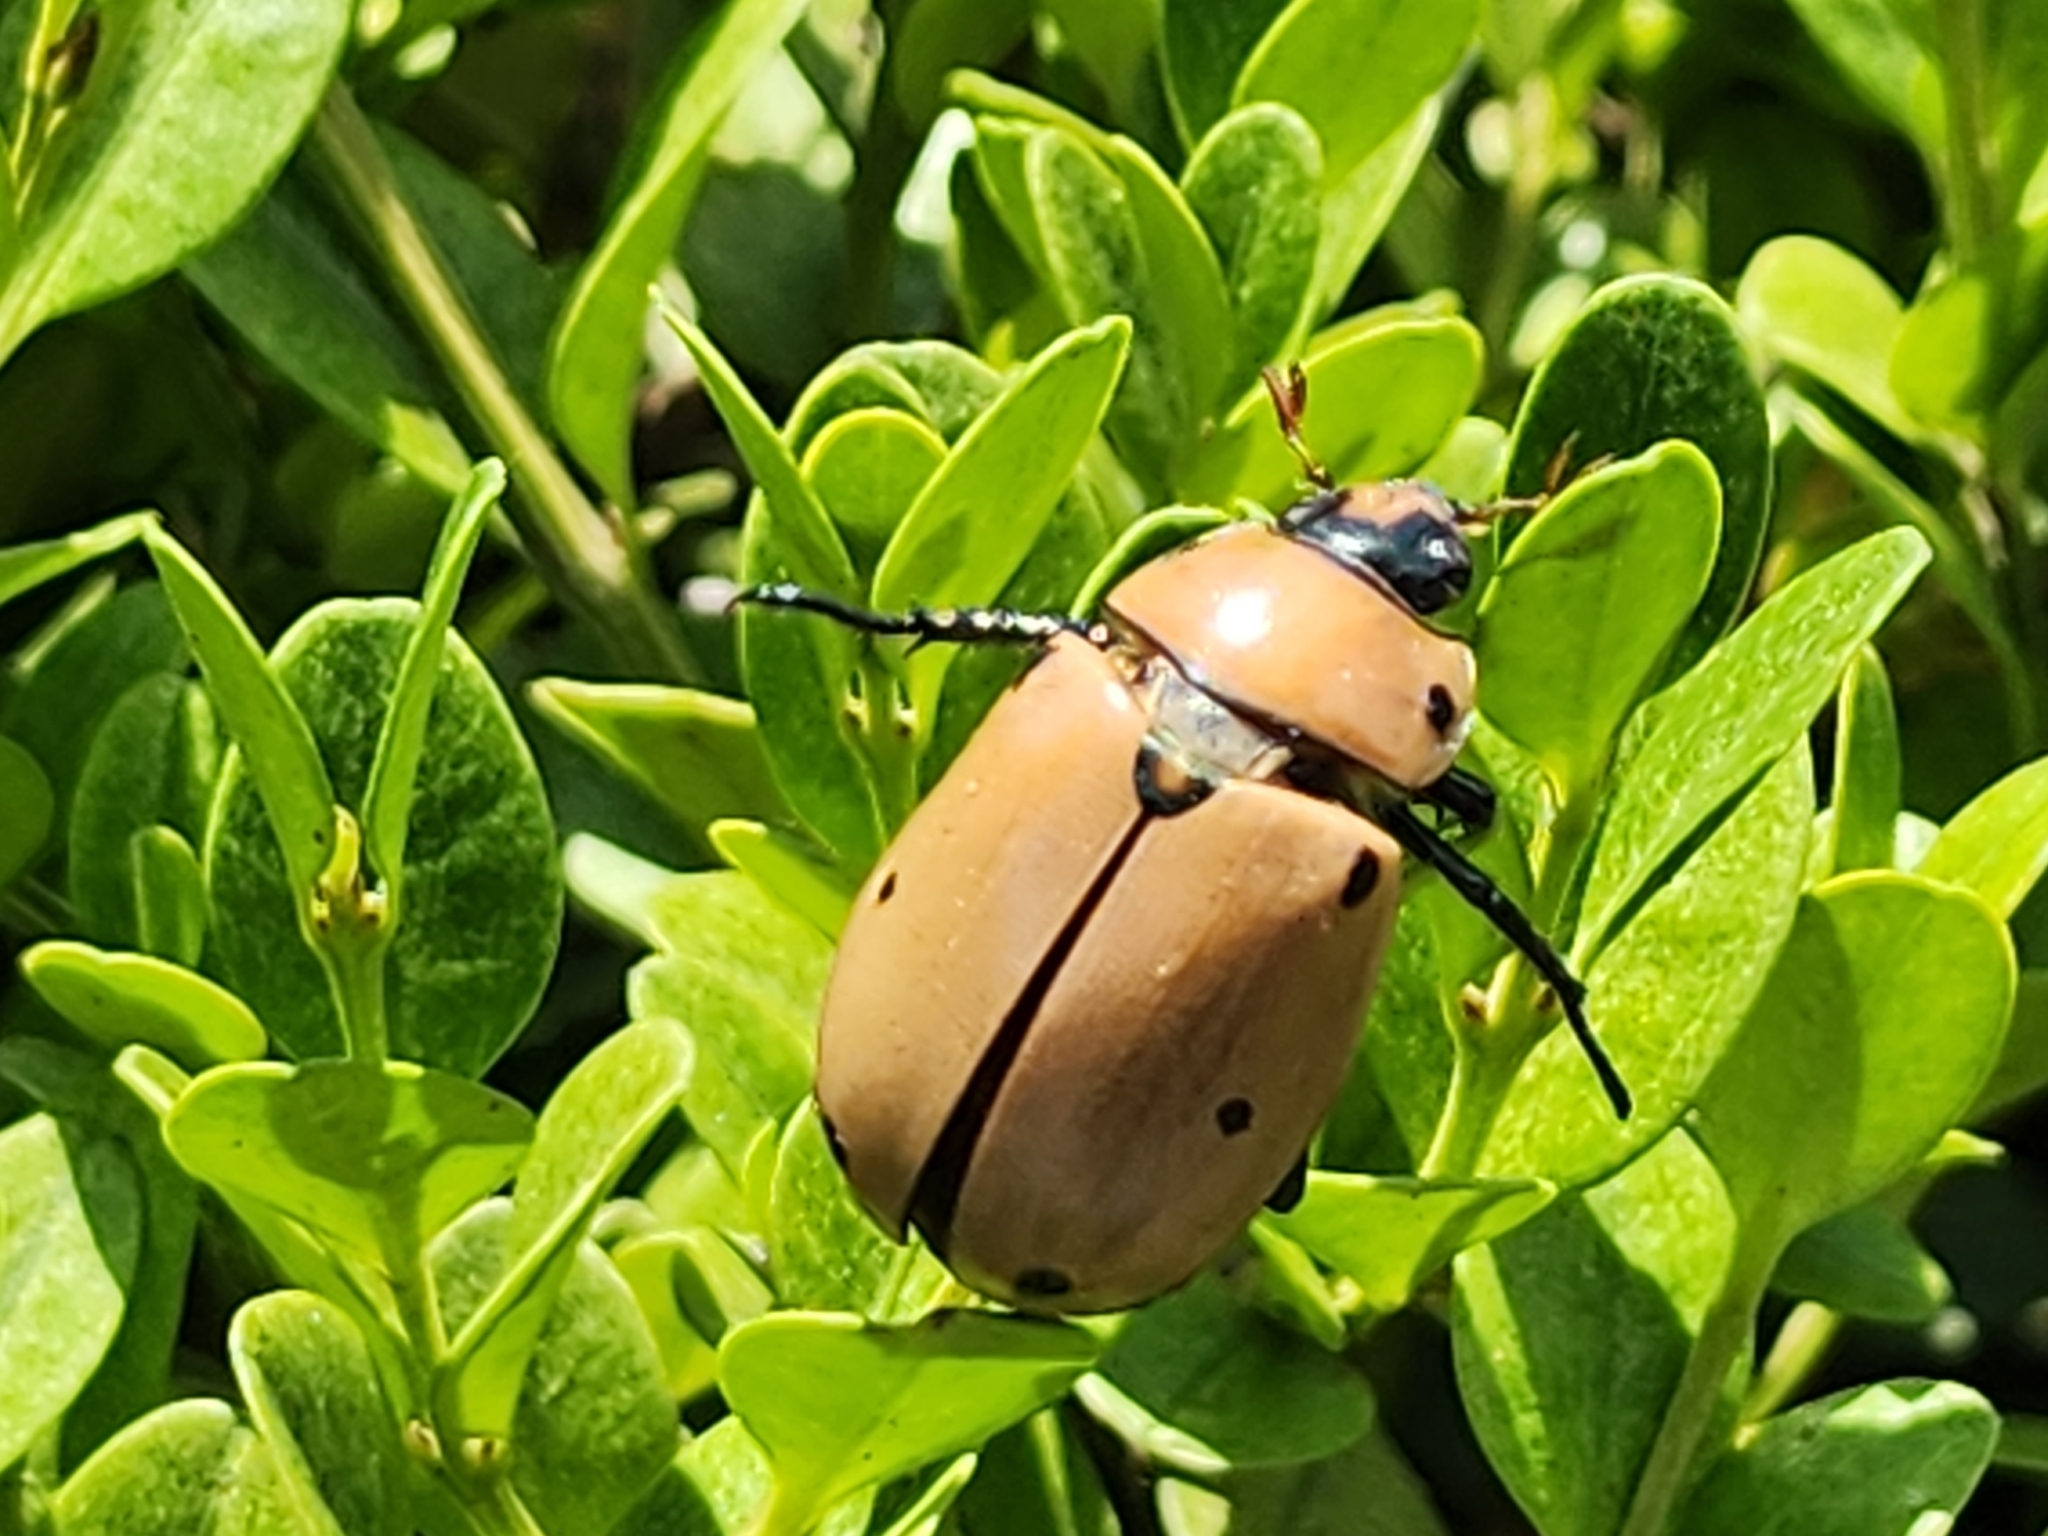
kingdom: Animalia
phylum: Arthropoda
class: Insecta
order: Coleoptera
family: Scarabaeidae
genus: Pelidnota
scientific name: Pelidnota punctata
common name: Grapevine beetle
